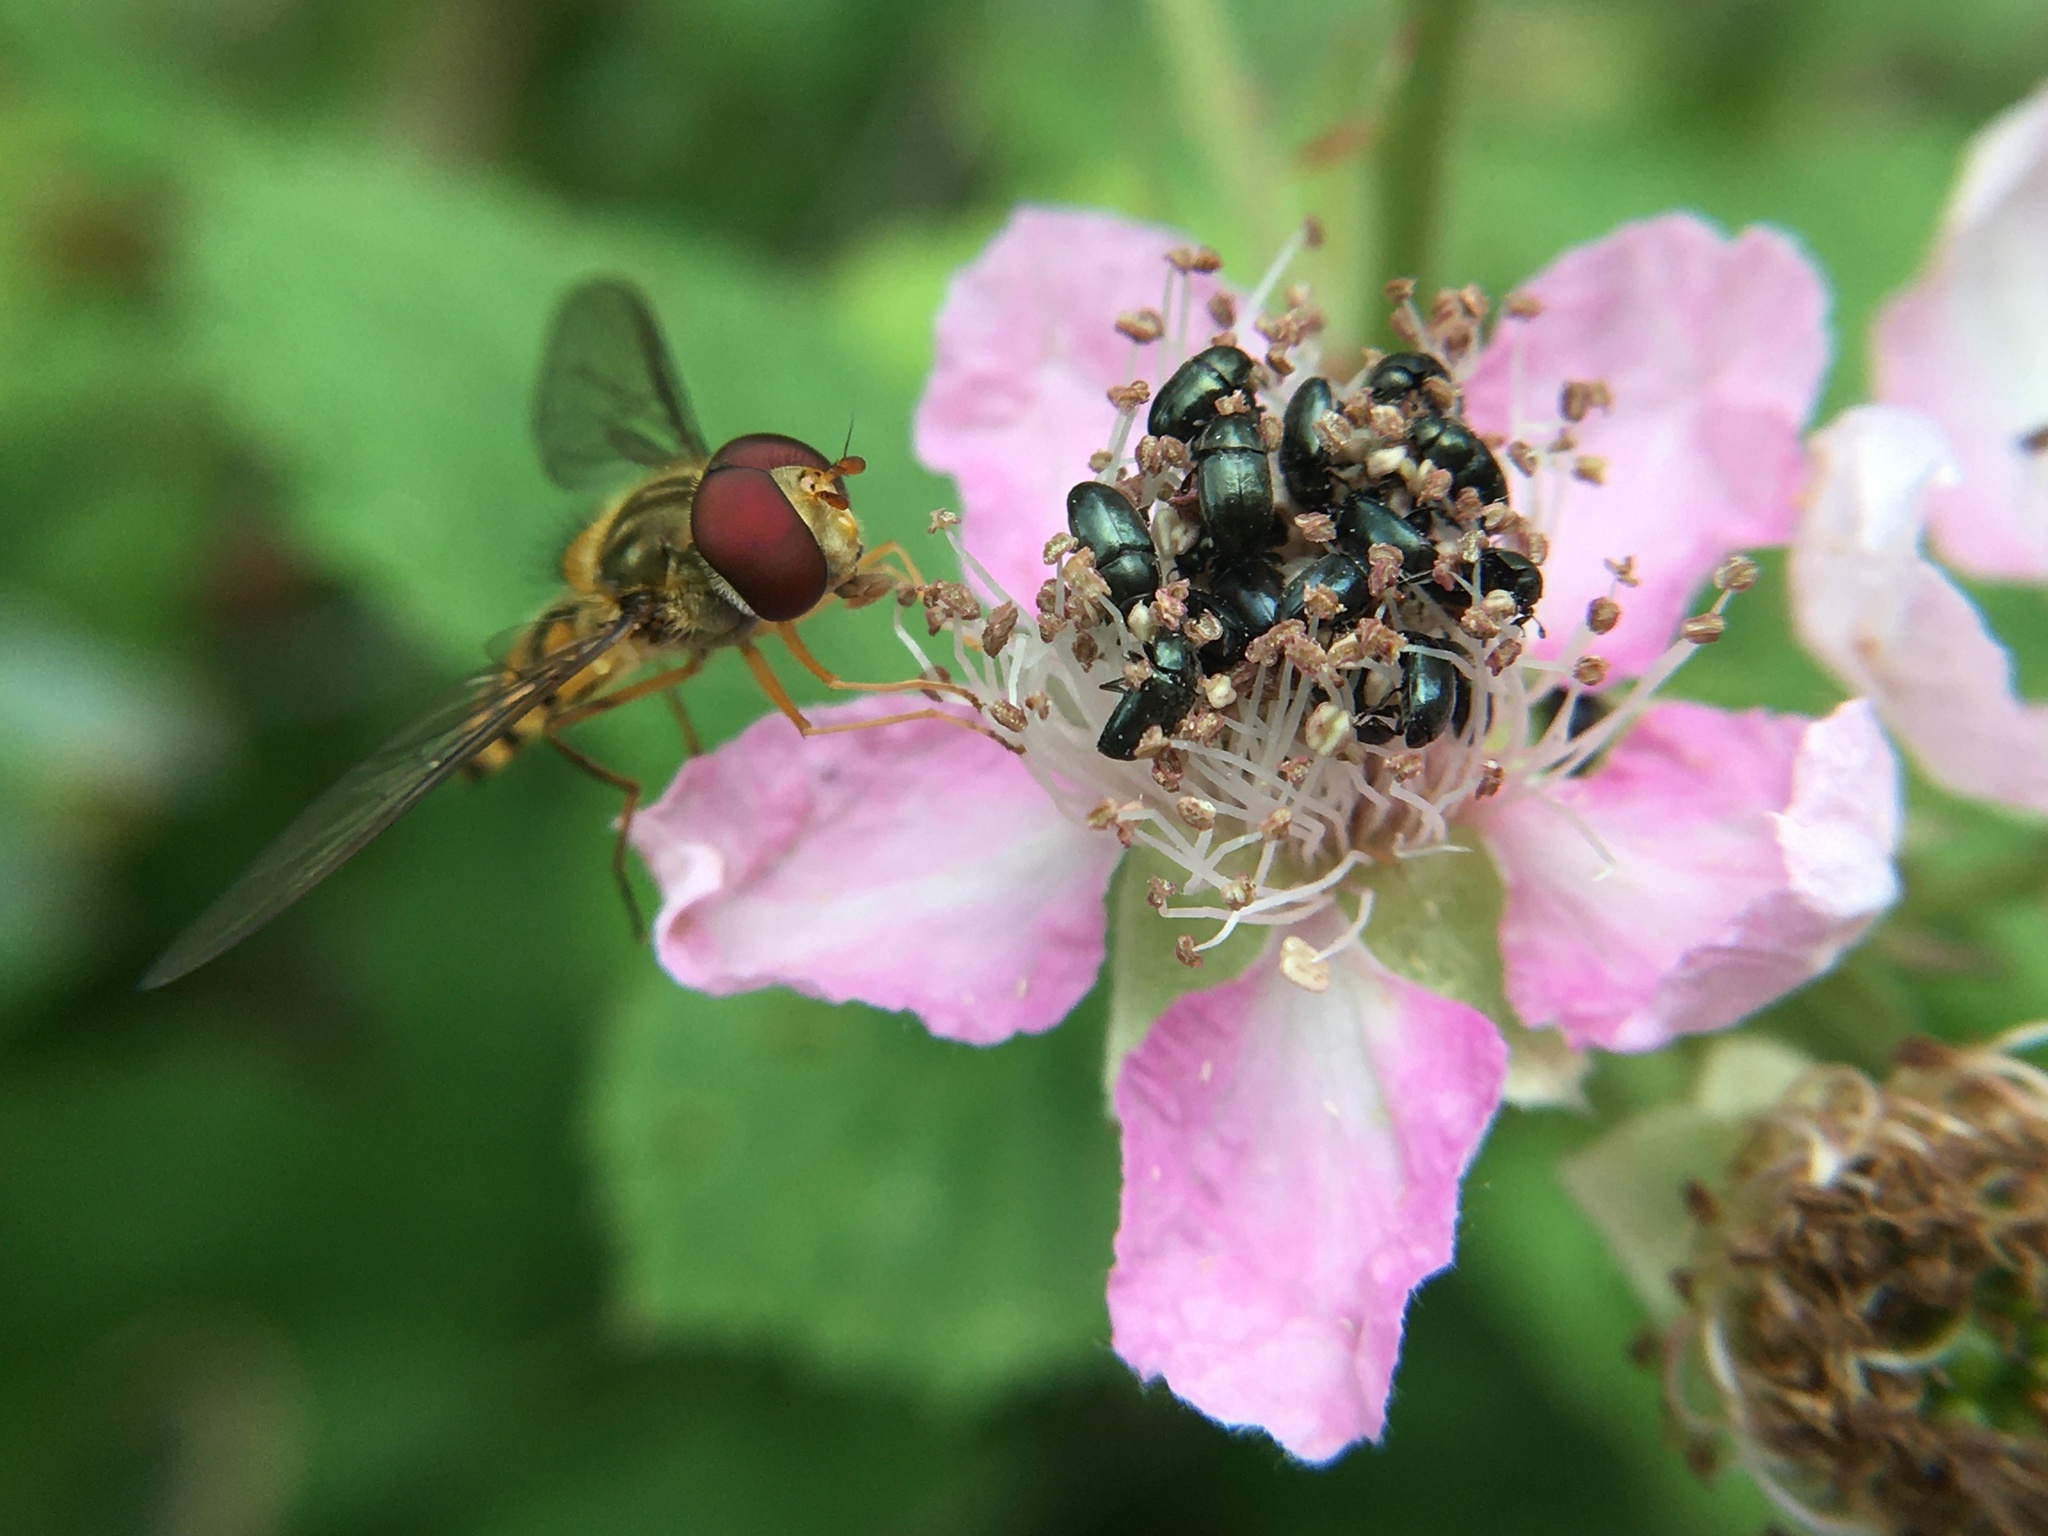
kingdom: Animalia
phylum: Arthropoda
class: Insecta
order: Diptera
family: Syrphidae
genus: Episyrphus
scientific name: Episyrphus balteatus
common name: Marmalade hoverfly
